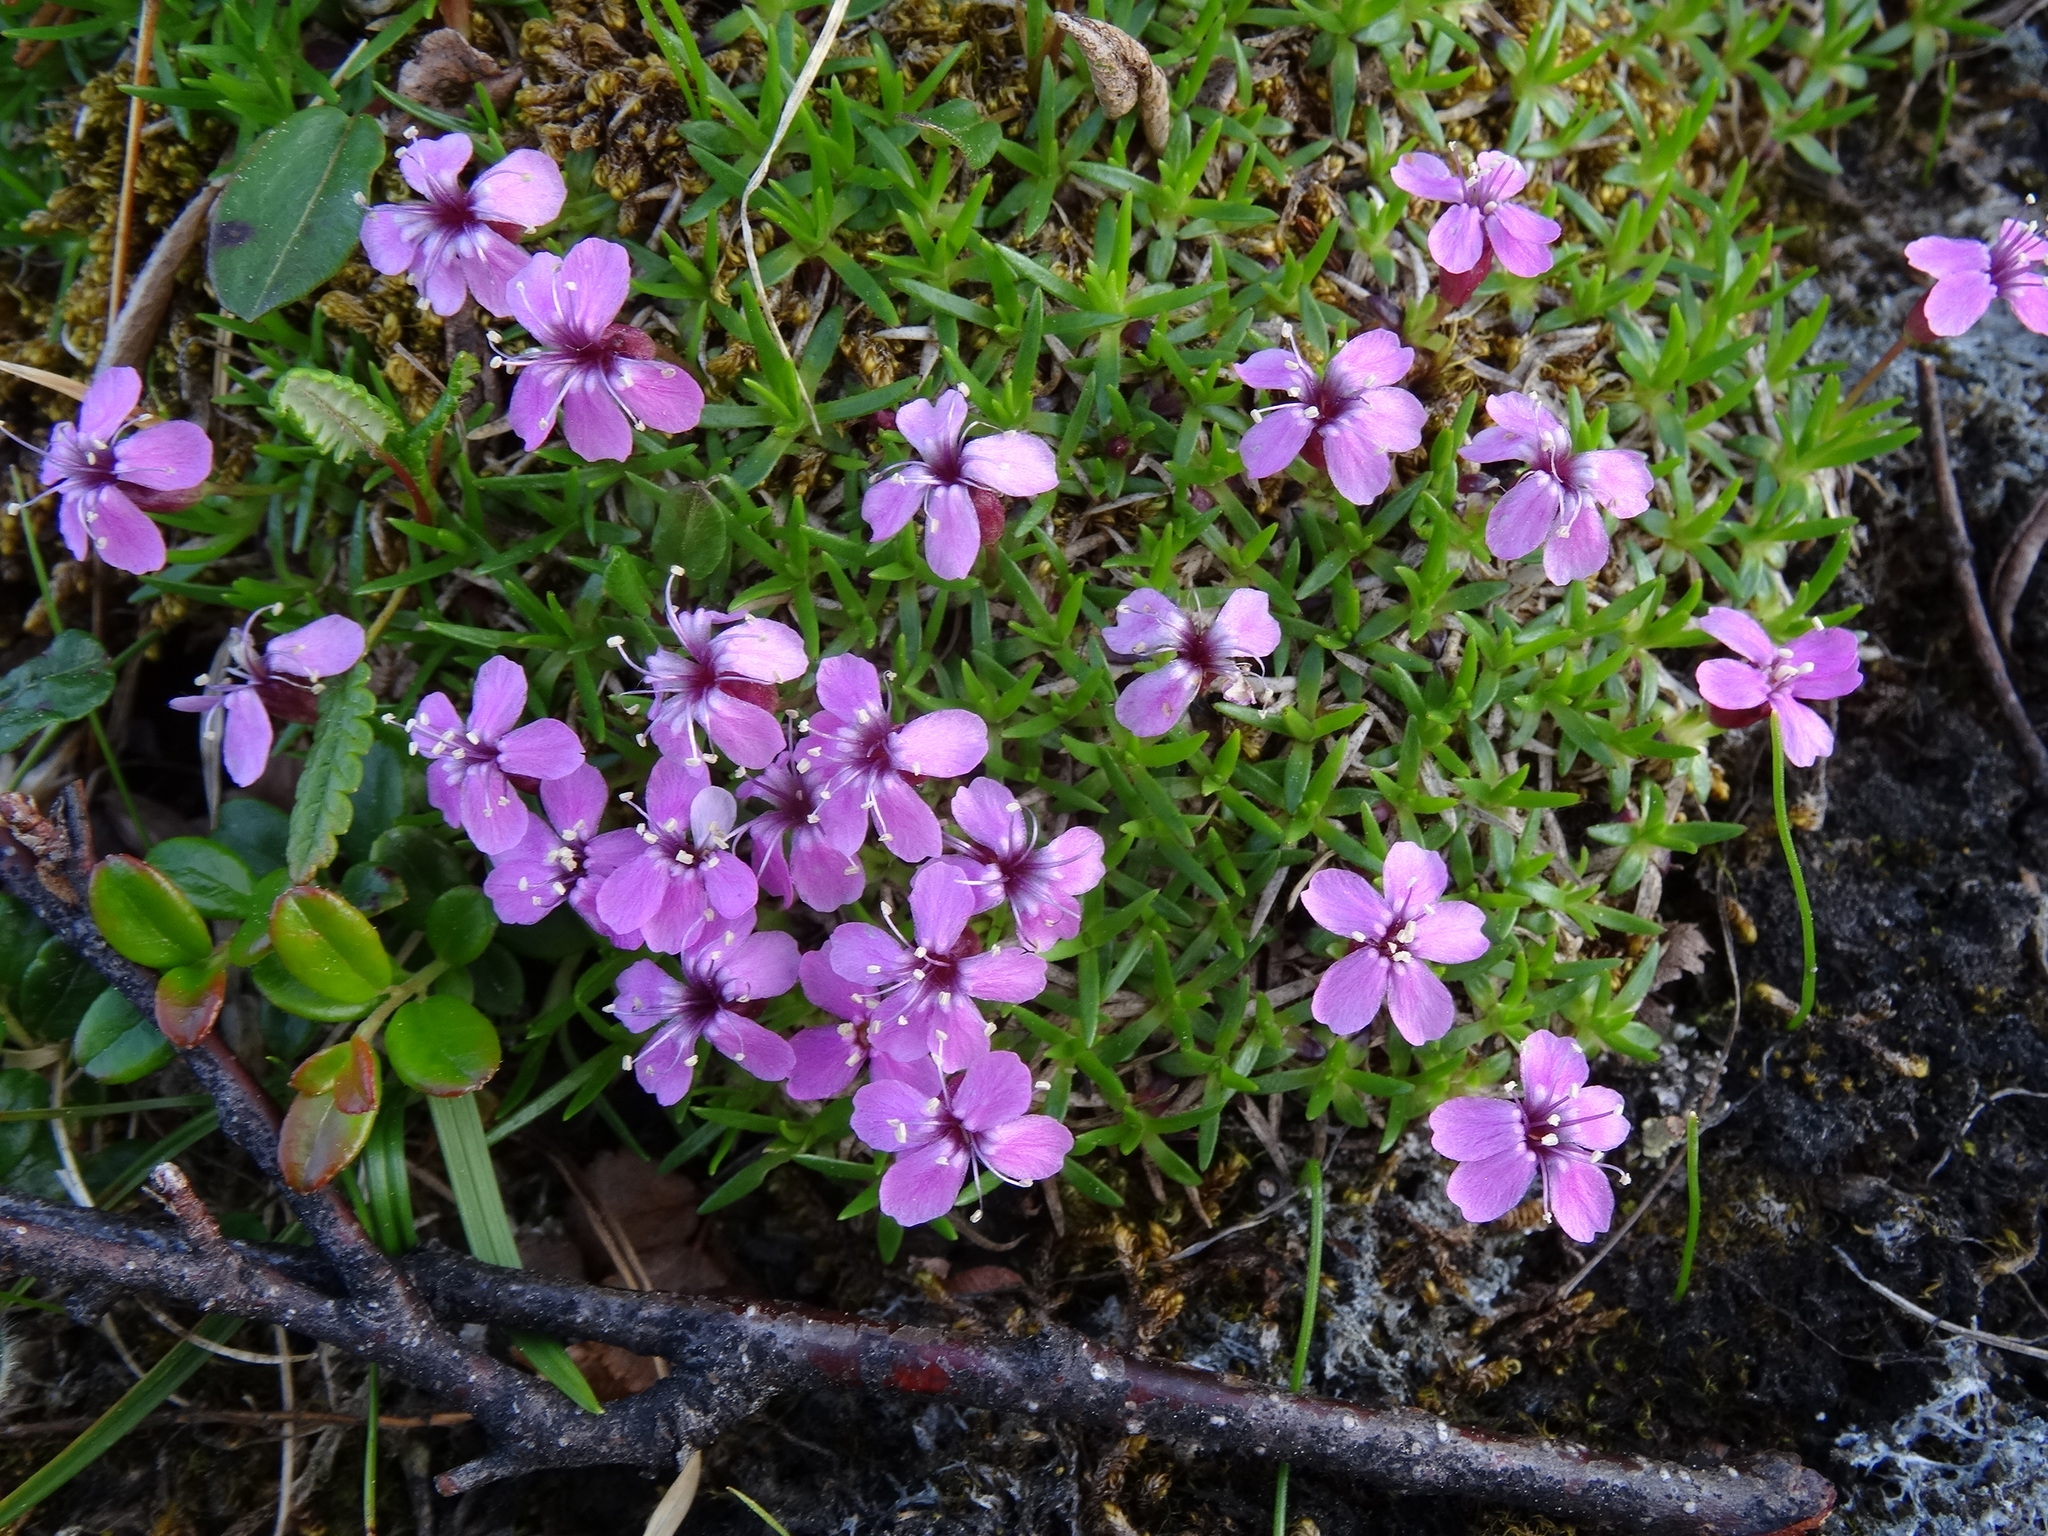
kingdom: Plantae
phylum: Tracheophyta
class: Magnoliopsida
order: Caryophyllales
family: Caryophyllaceae
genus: Silene
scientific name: Silene acaulis
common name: Moss campion
